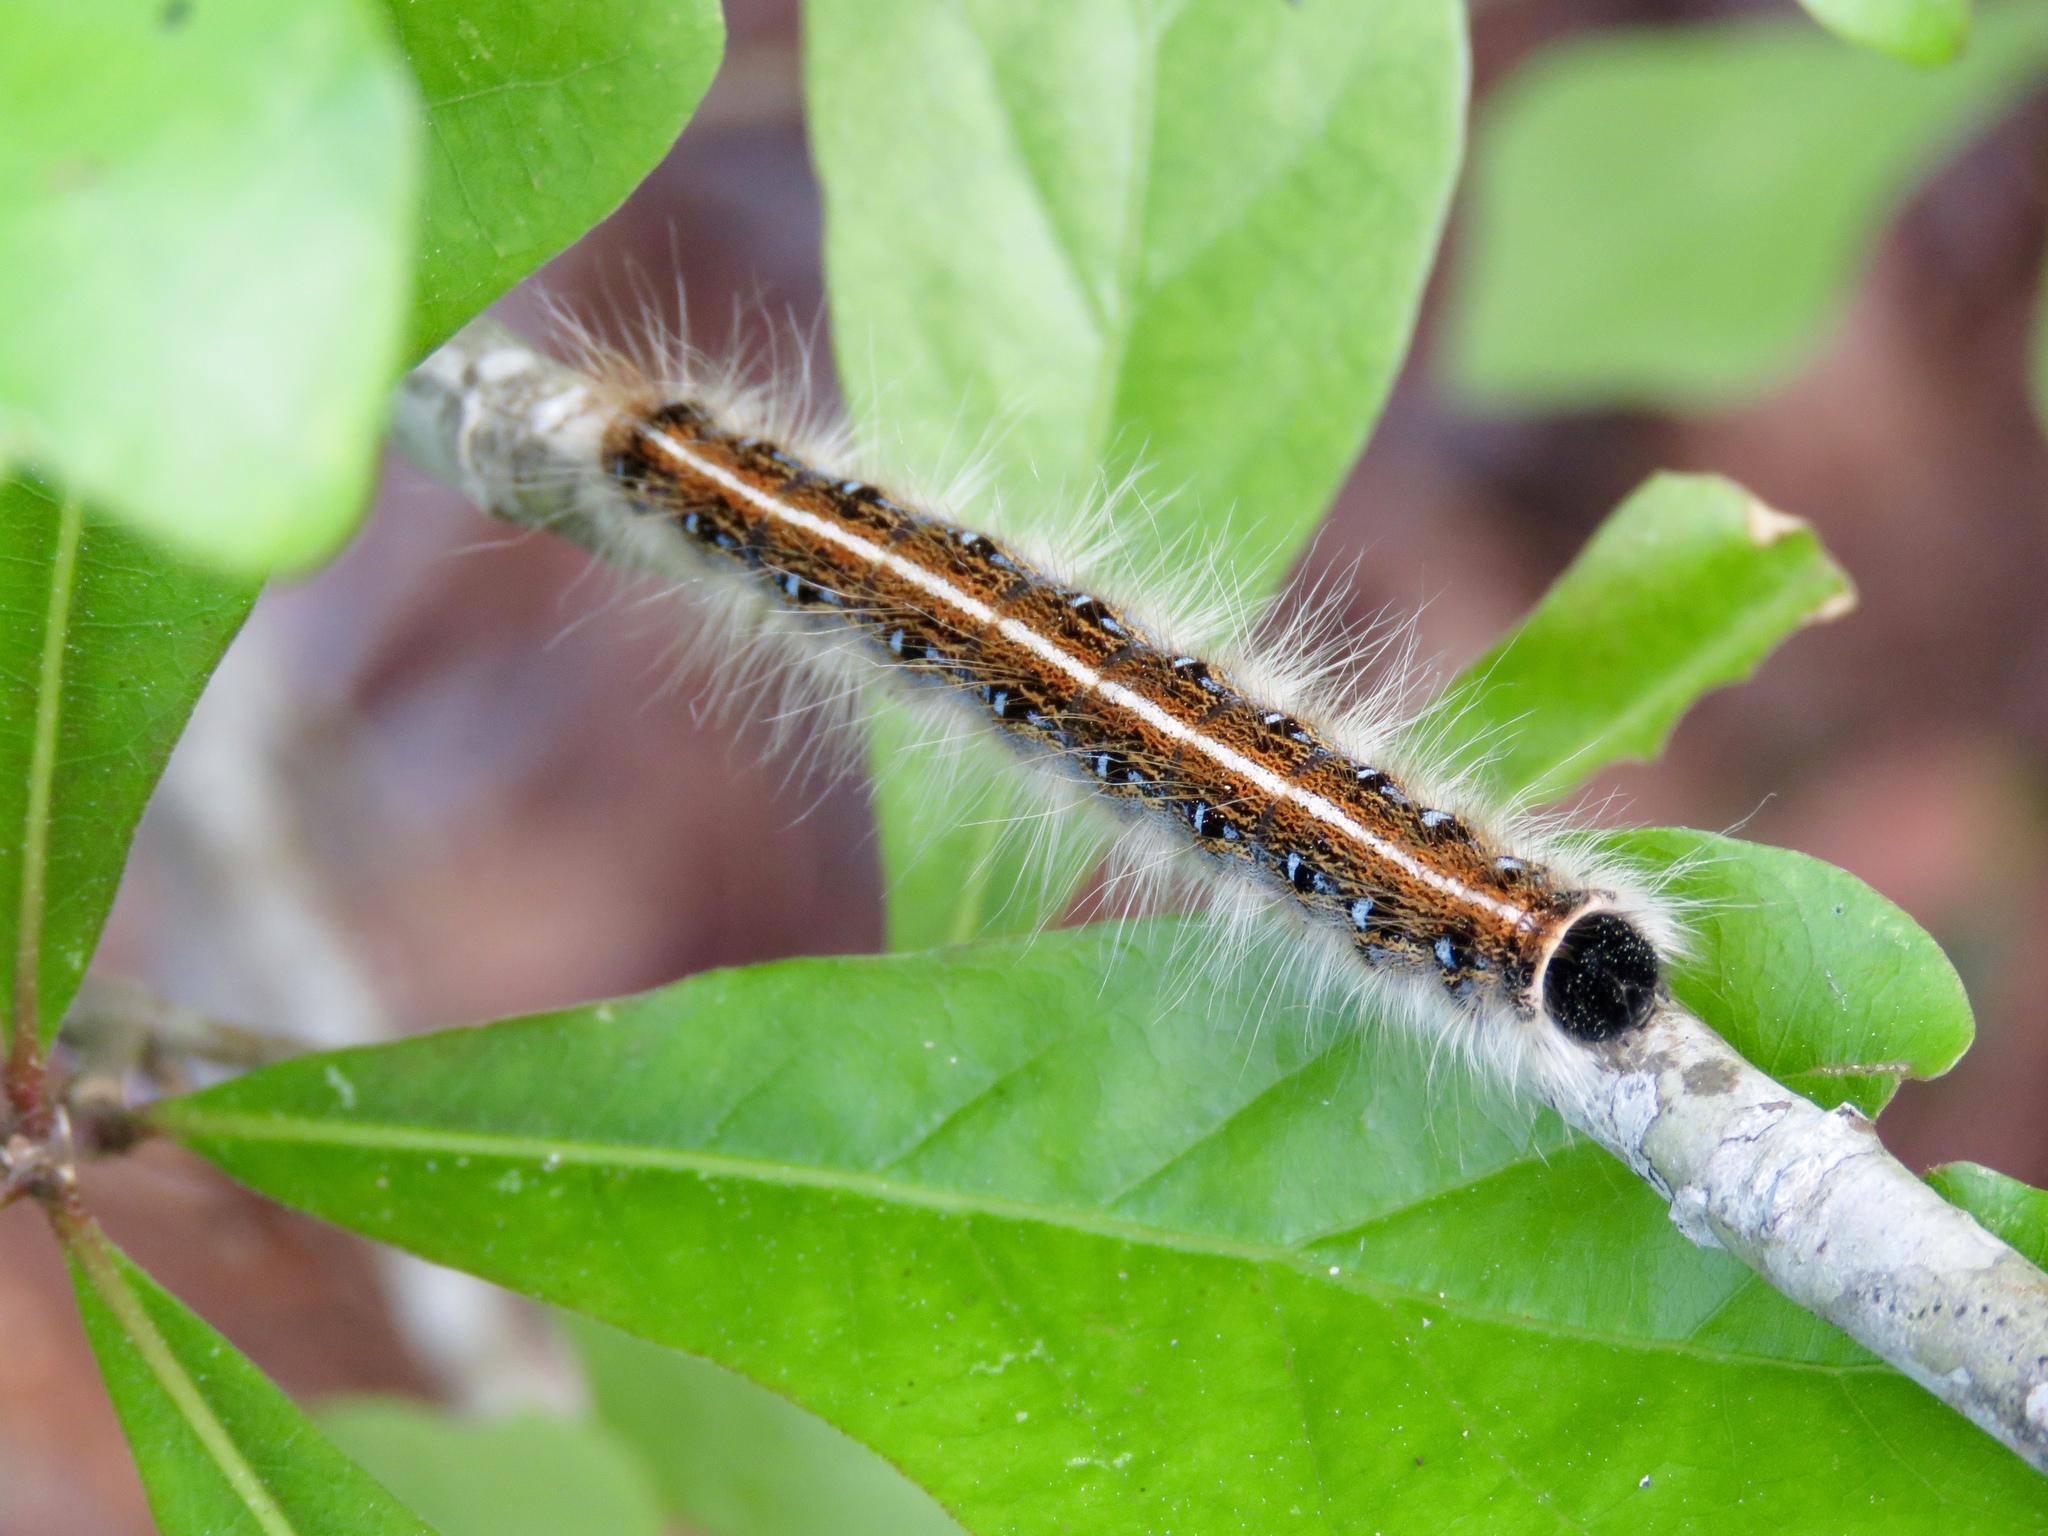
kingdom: Animalia
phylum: Arthropoda
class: Insecta
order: Lepidoptera
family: Lasiocampidae
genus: Malacosoma
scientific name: Malacosoma americana
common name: Eastern tent caterpillar moth
